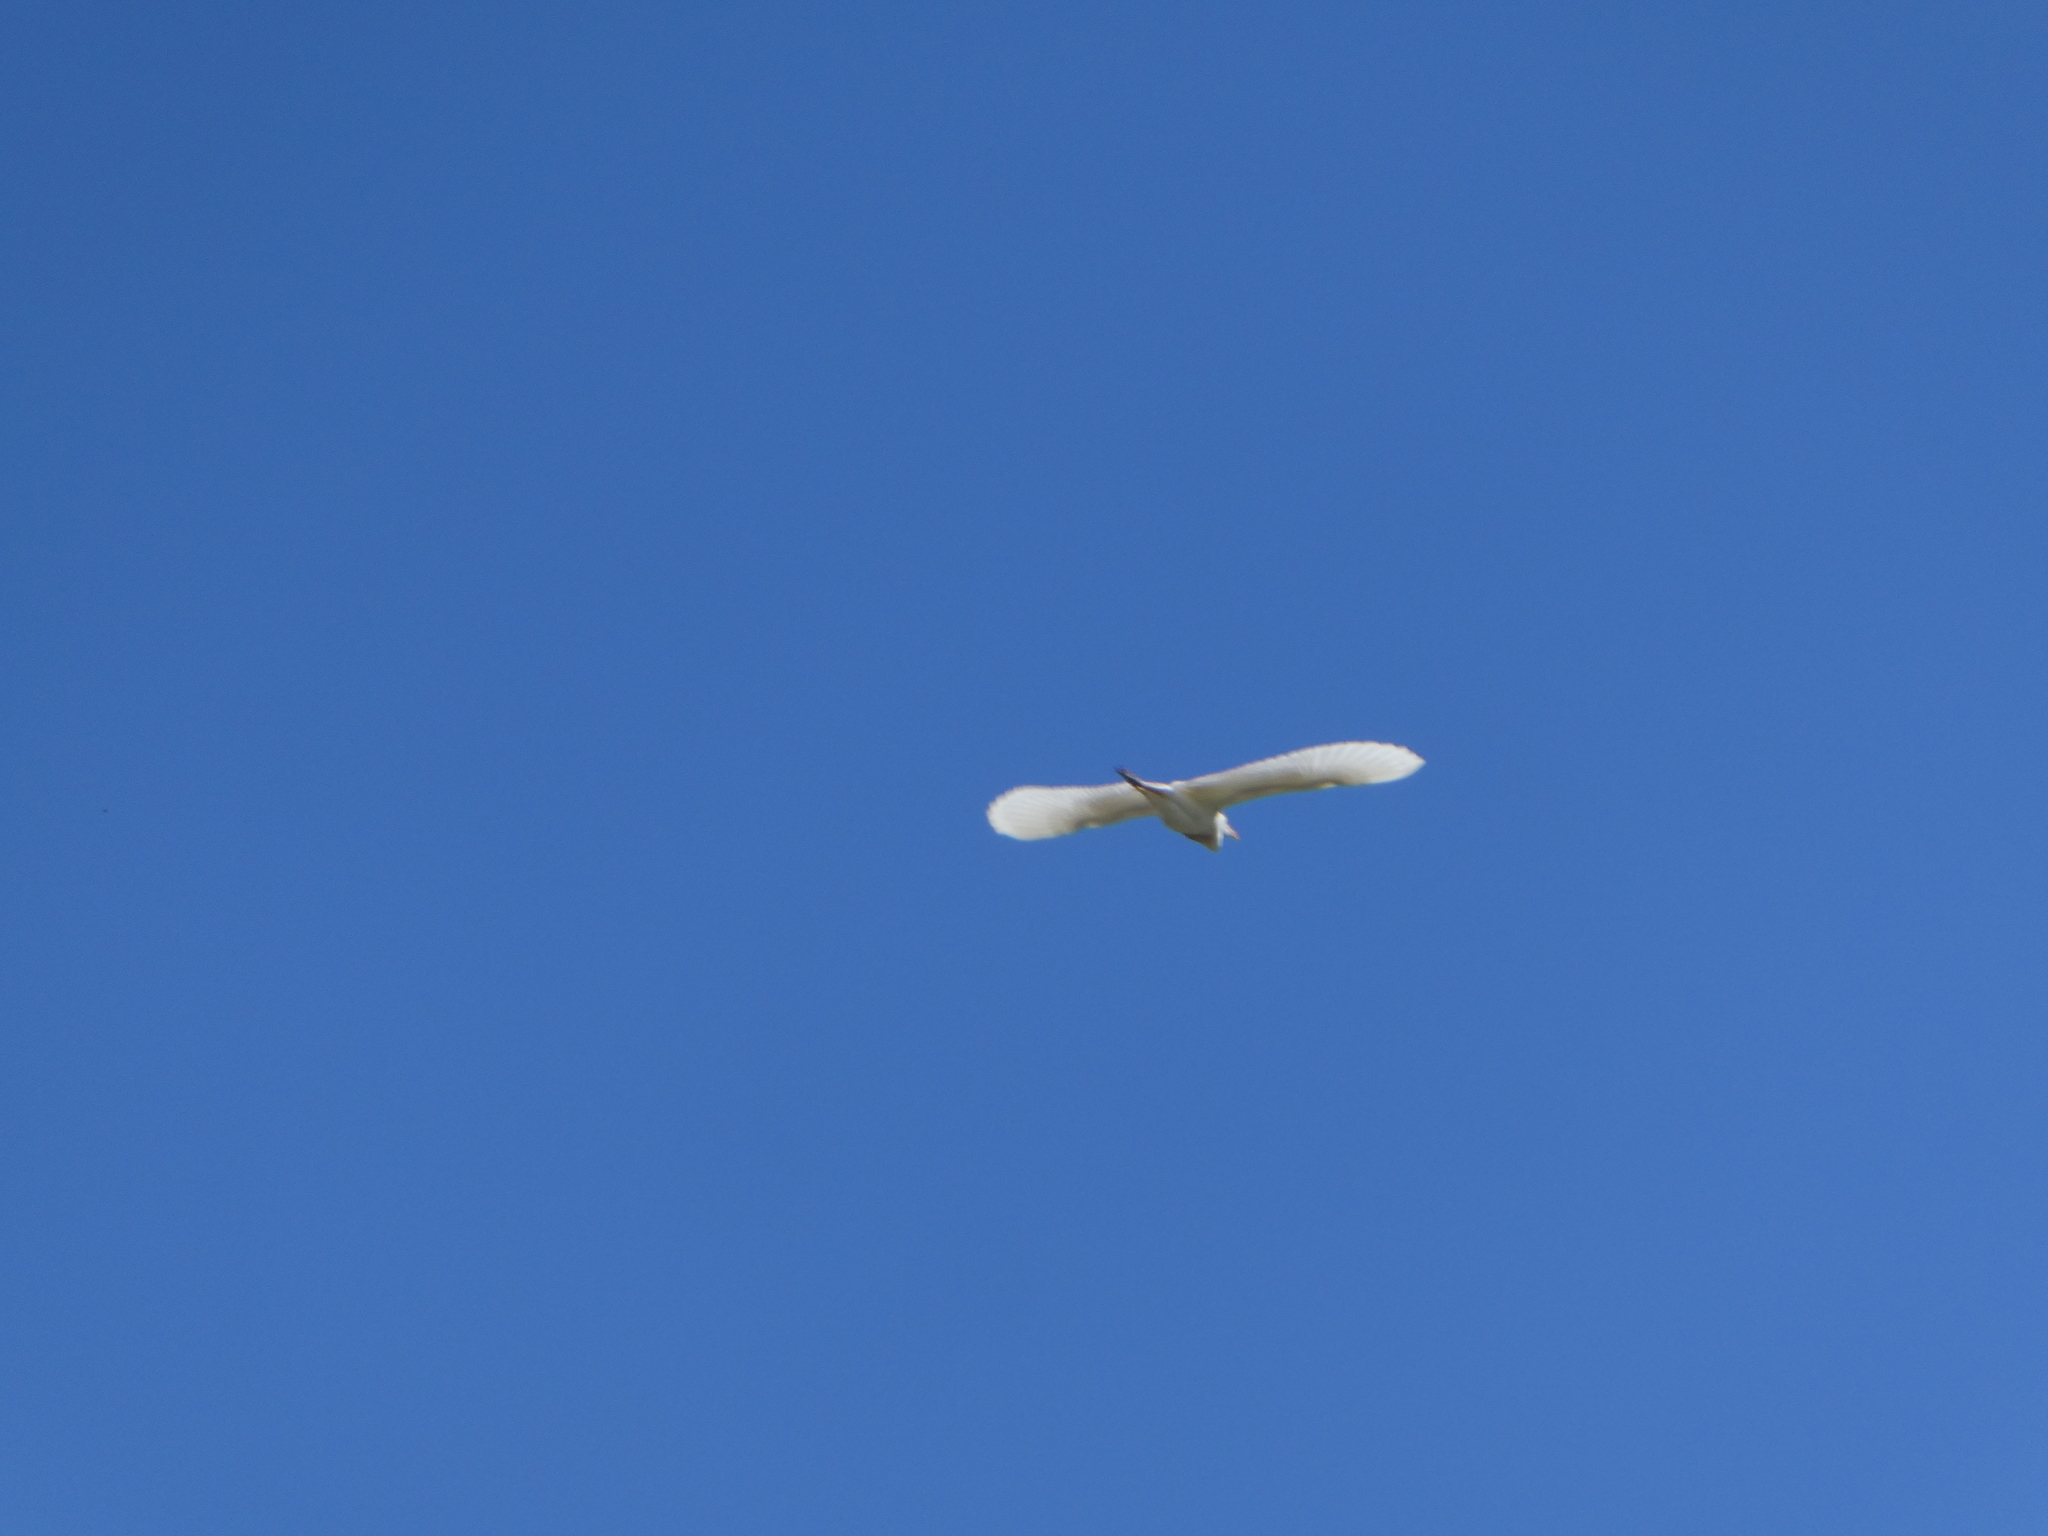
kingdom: Animalia
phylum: Chordata
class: Aves
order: Pelecaniformes
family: Ardeidae
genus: Bubulcus
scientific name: Bubulcus ibis
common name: Cattle egret
